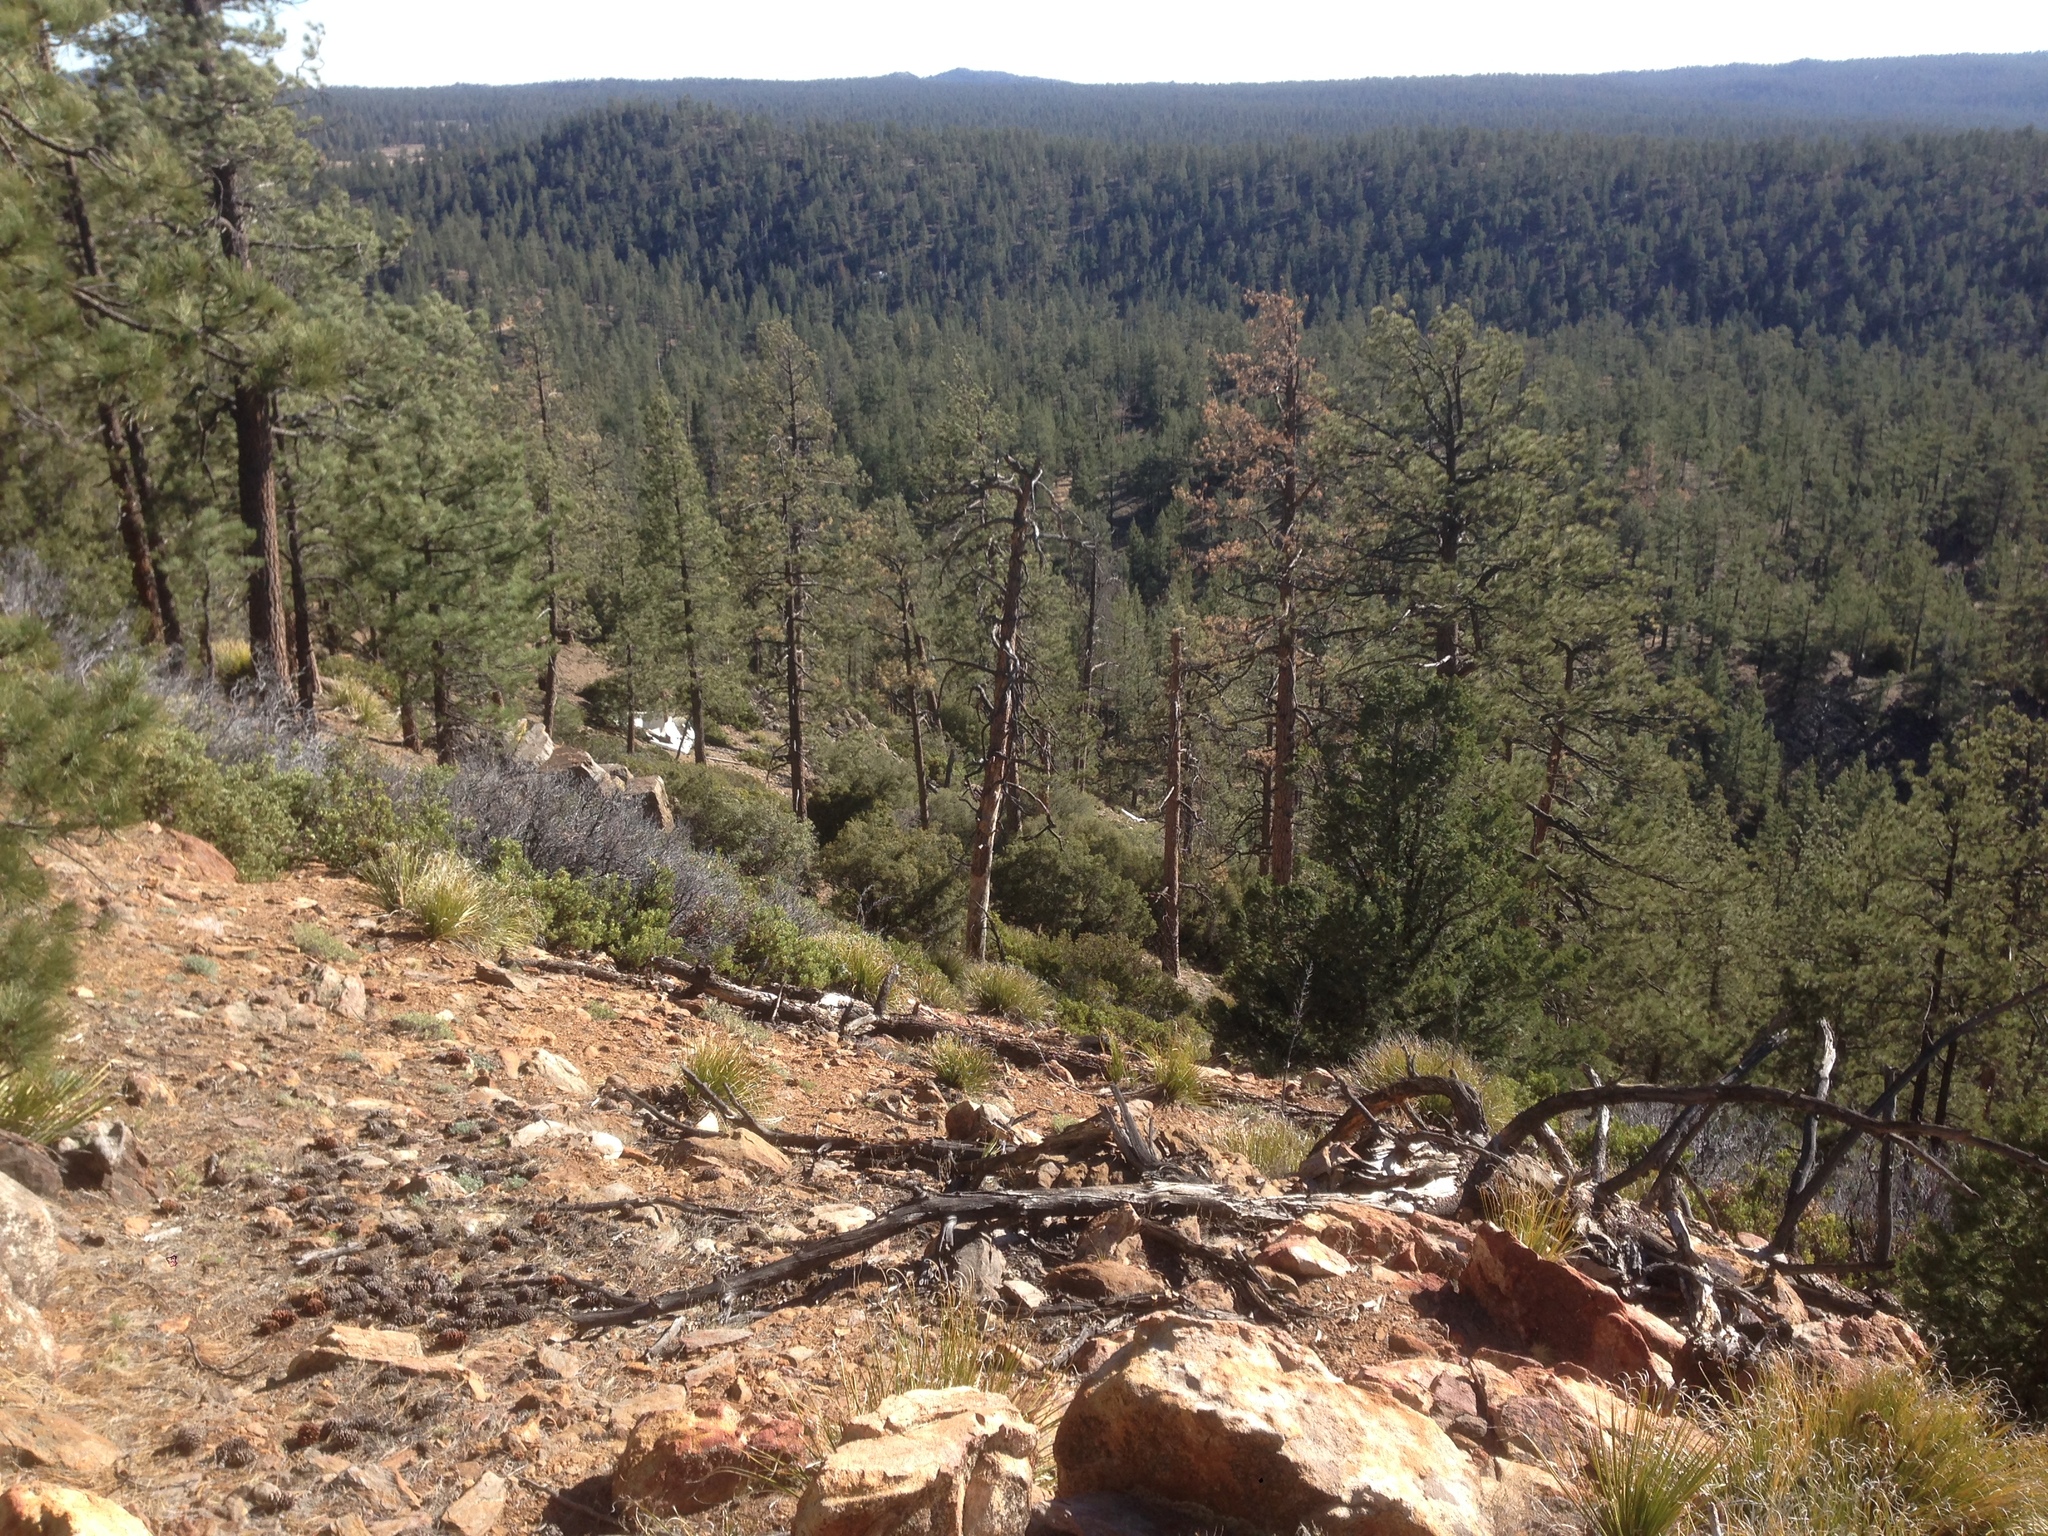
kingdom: Plantae
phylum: Tracheophyta
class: Pinopsida
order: Pinales
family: Pinaceae
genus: Pinus
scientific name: Pinus jeffreyi
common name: Jeffrey pine
